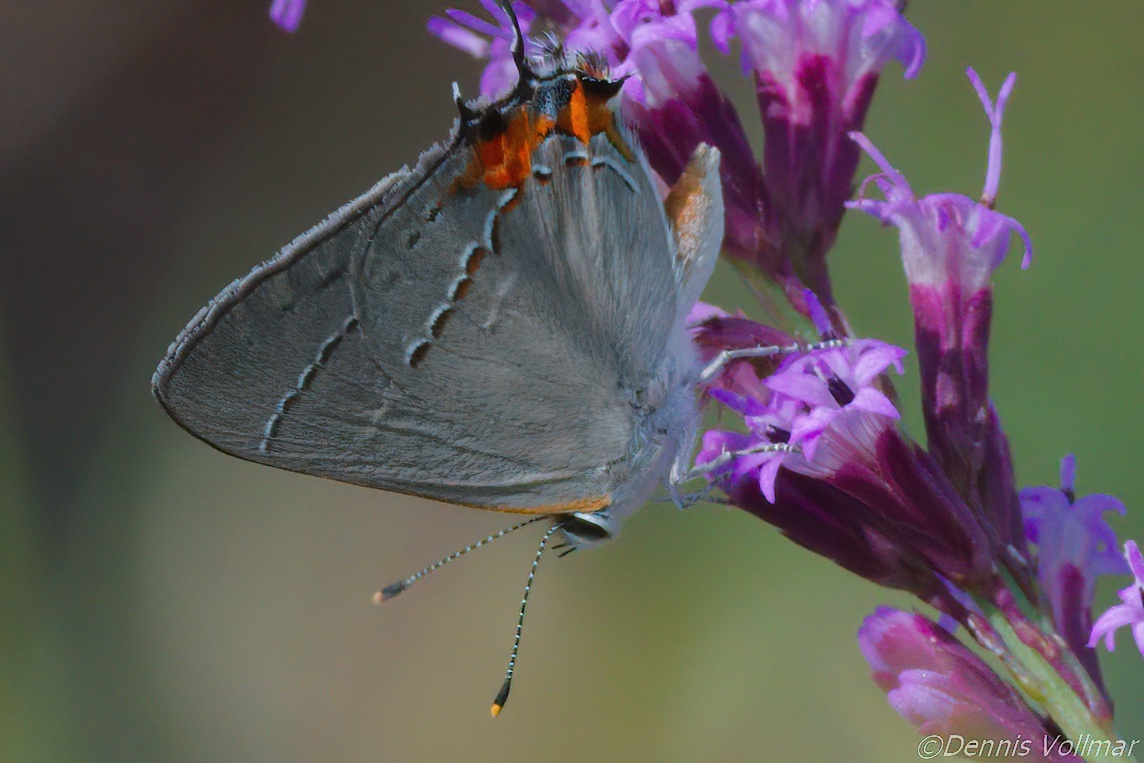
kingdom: Animalia
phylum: Arthropoda
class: Insecta
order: Lepidoptera
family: Lycaenidae
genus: Strymon
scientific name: Strymon melinus
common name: Gray hairstreak
